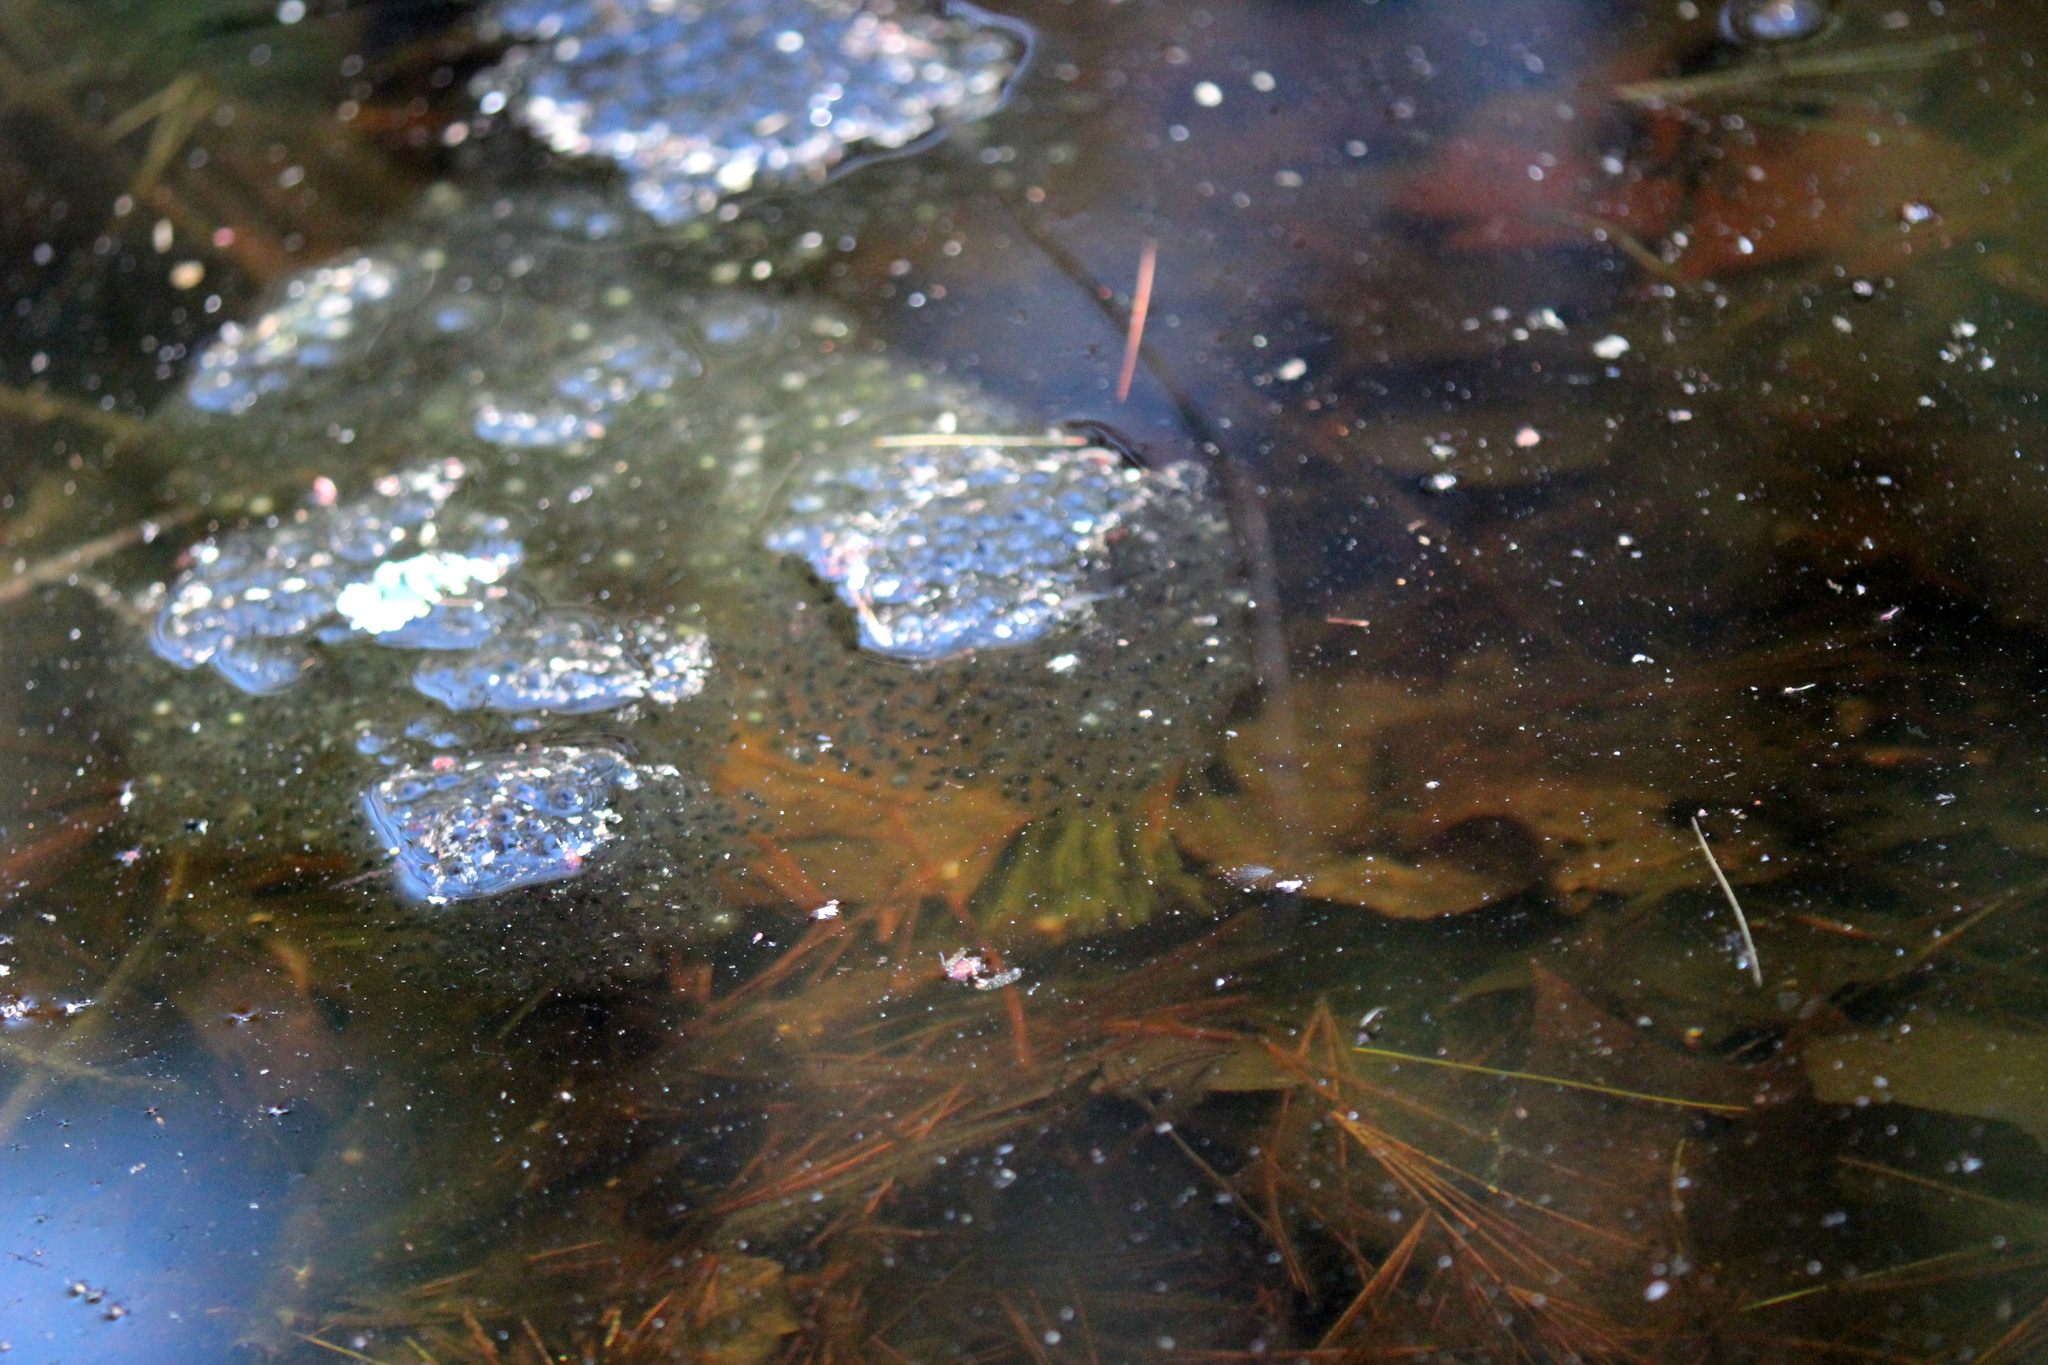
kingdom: Animalia
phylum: Chordata
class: Amphibia
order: Anura
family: Ranidae
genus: Lithobates
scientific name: Lithobates sylvaticus
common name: Wood frog
